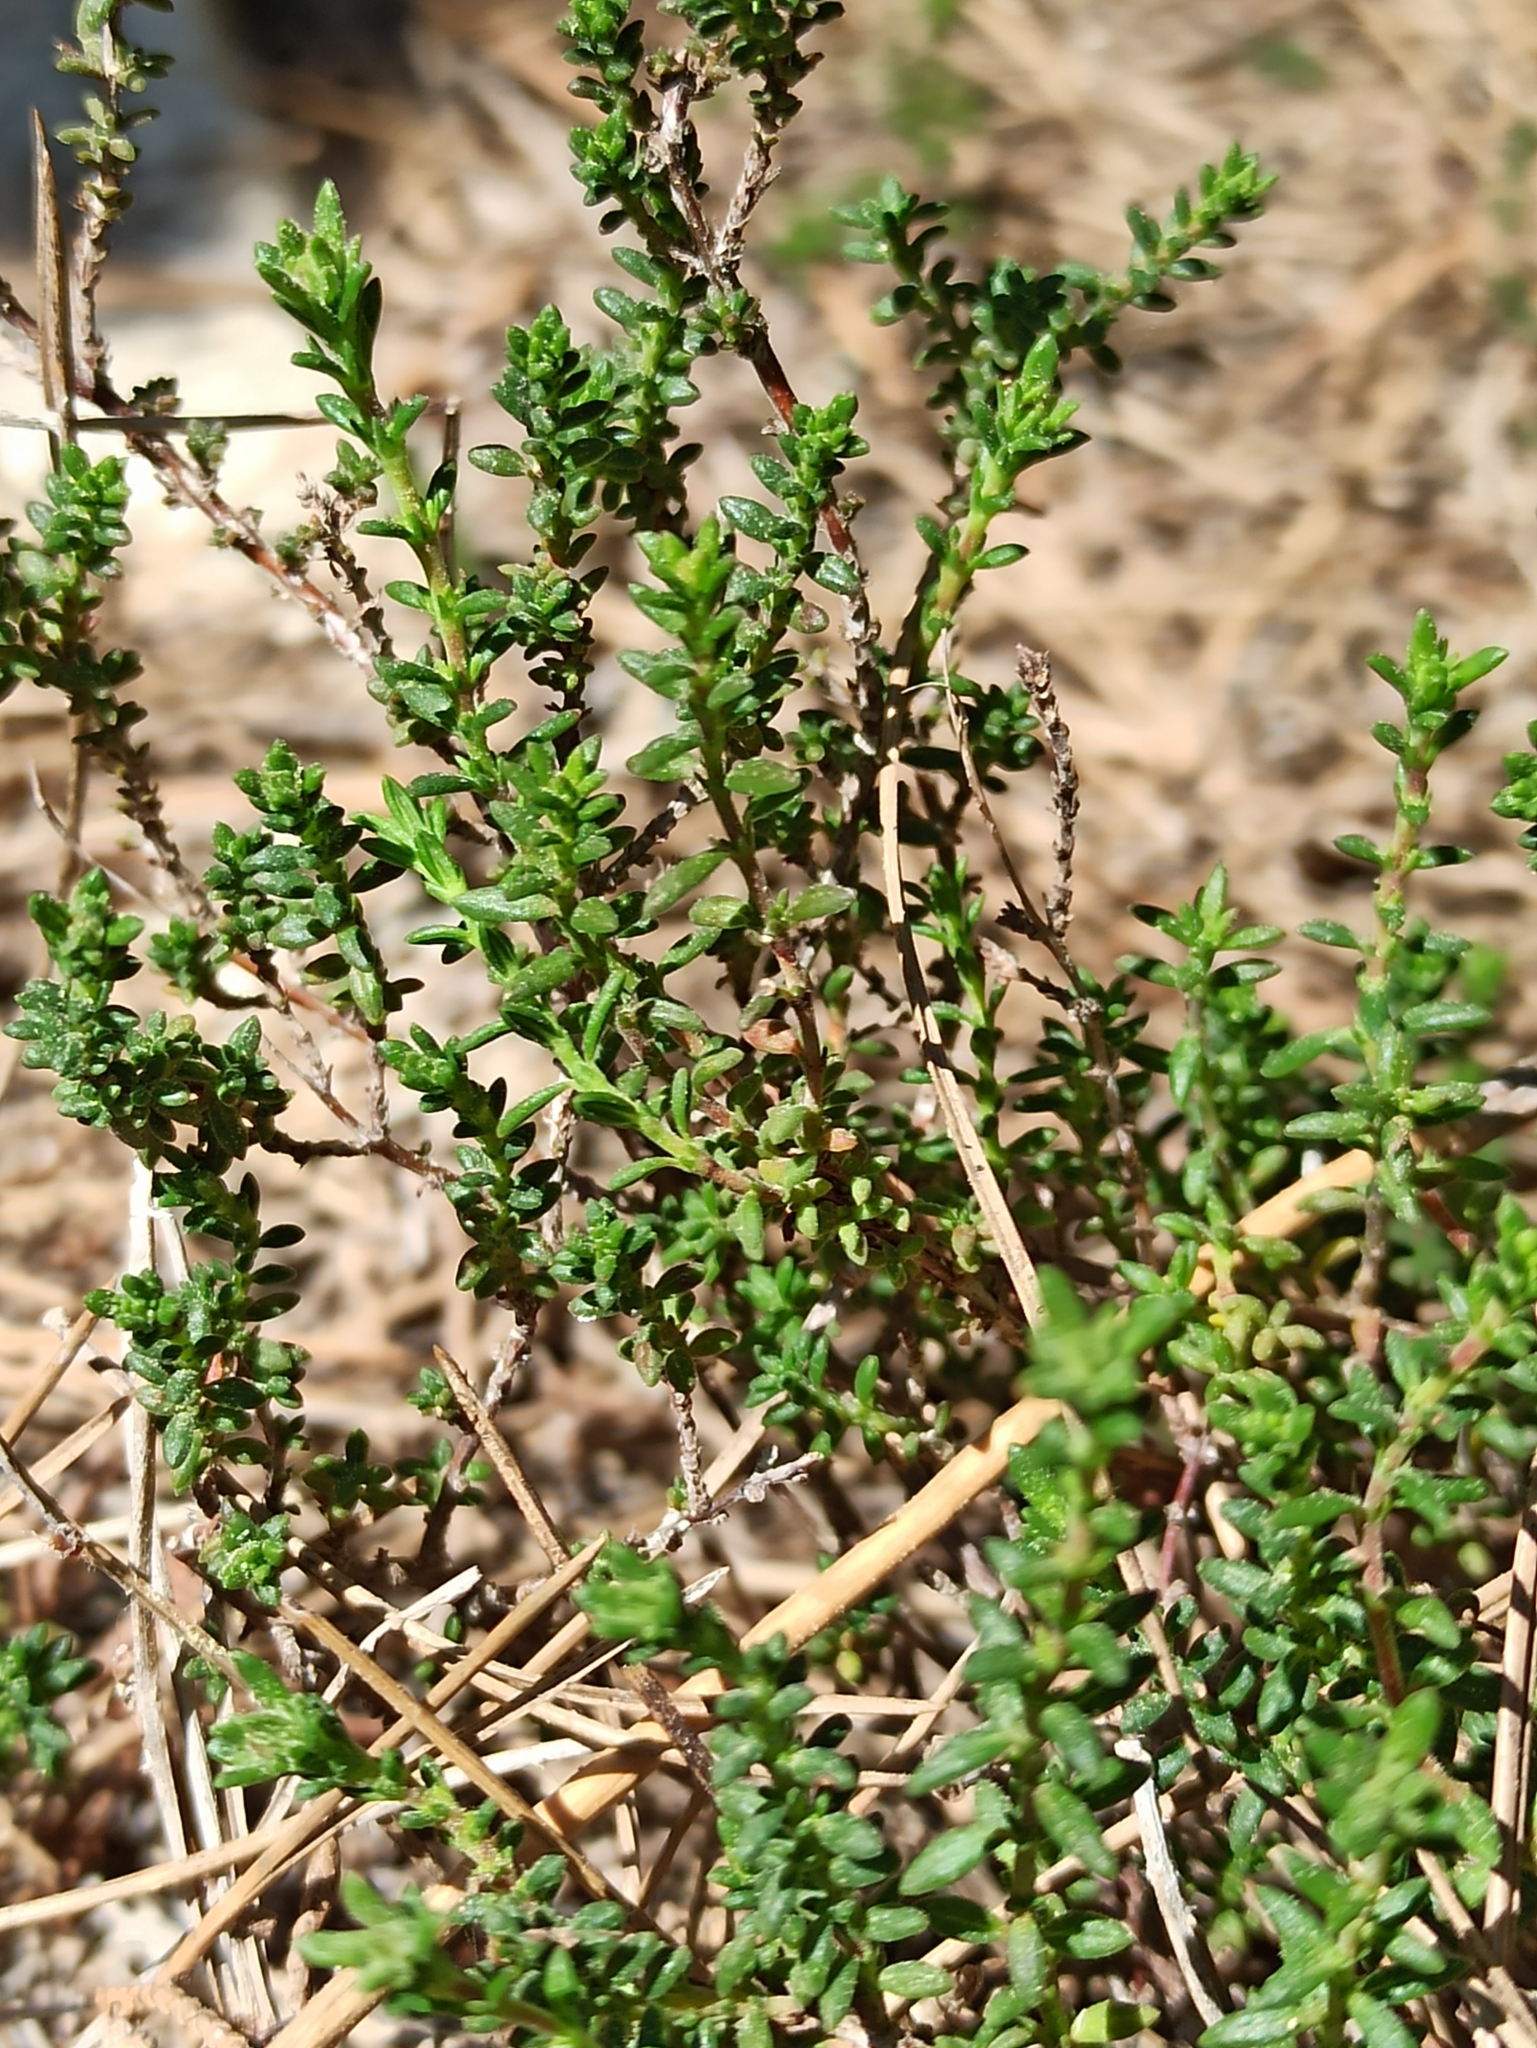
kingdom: Plantae
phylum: Tracheophyta
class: Magnoliopsida
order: Malvales
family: Cistaceae
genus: Fumana
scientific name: Fumana thymifolia
